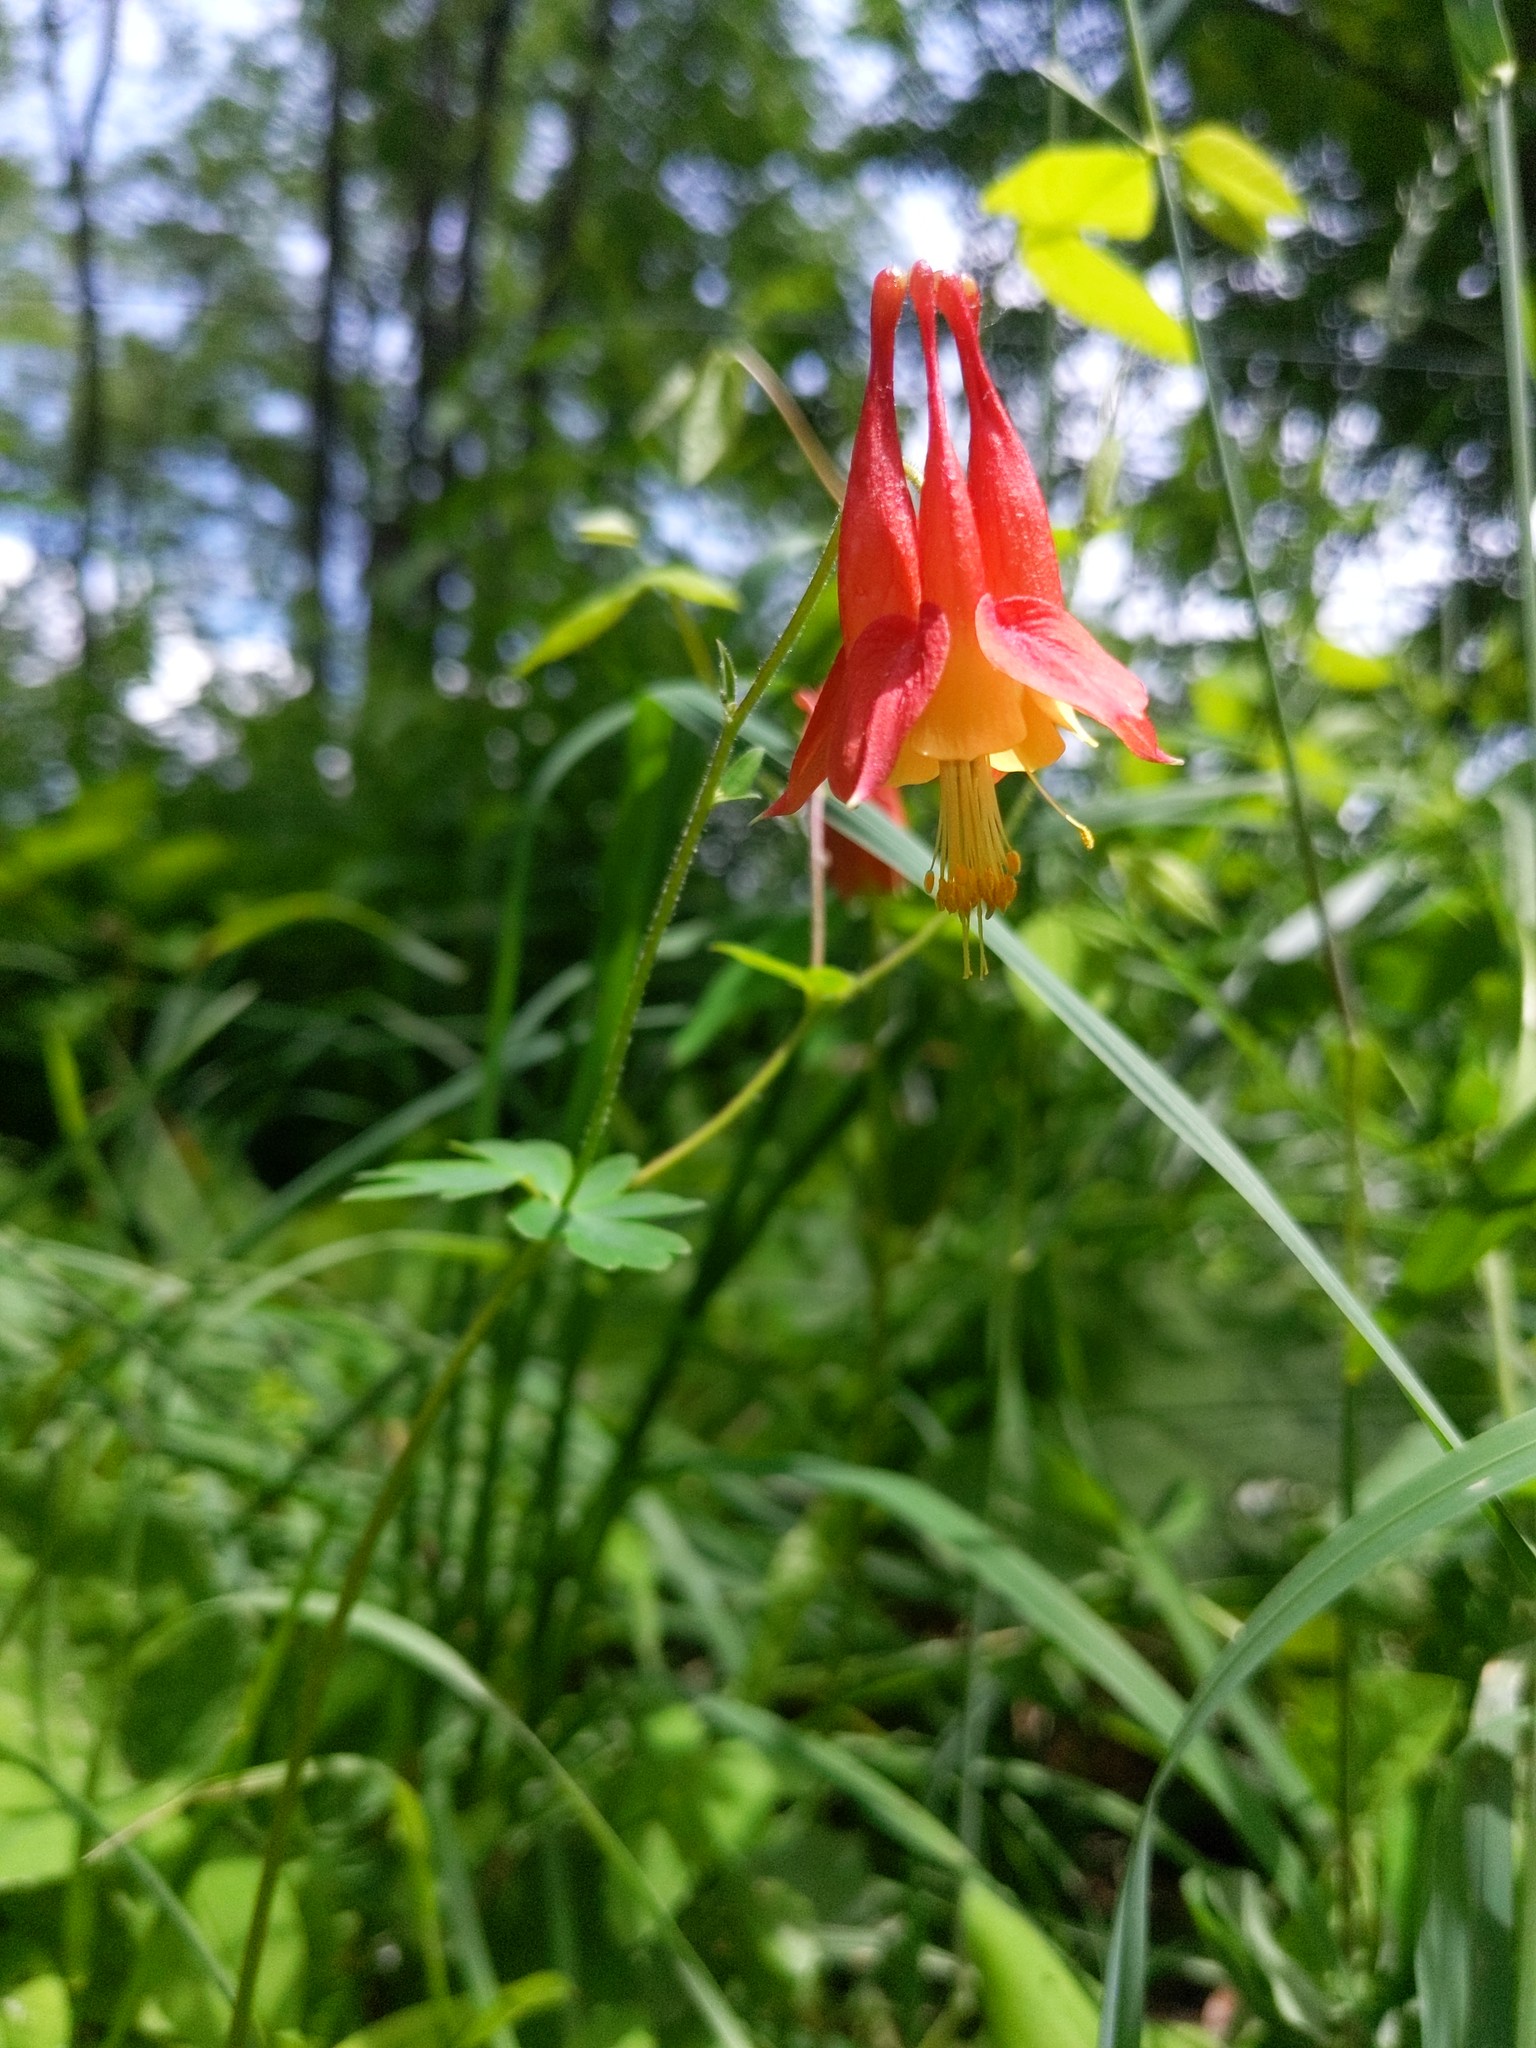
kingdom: Plantae
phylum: Tracheophyta
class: Magnoliopsida
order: Ranunculales
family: Ranunculaceae
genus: Aquilegia
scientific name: Aquilegia canadensis
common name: American columbine
